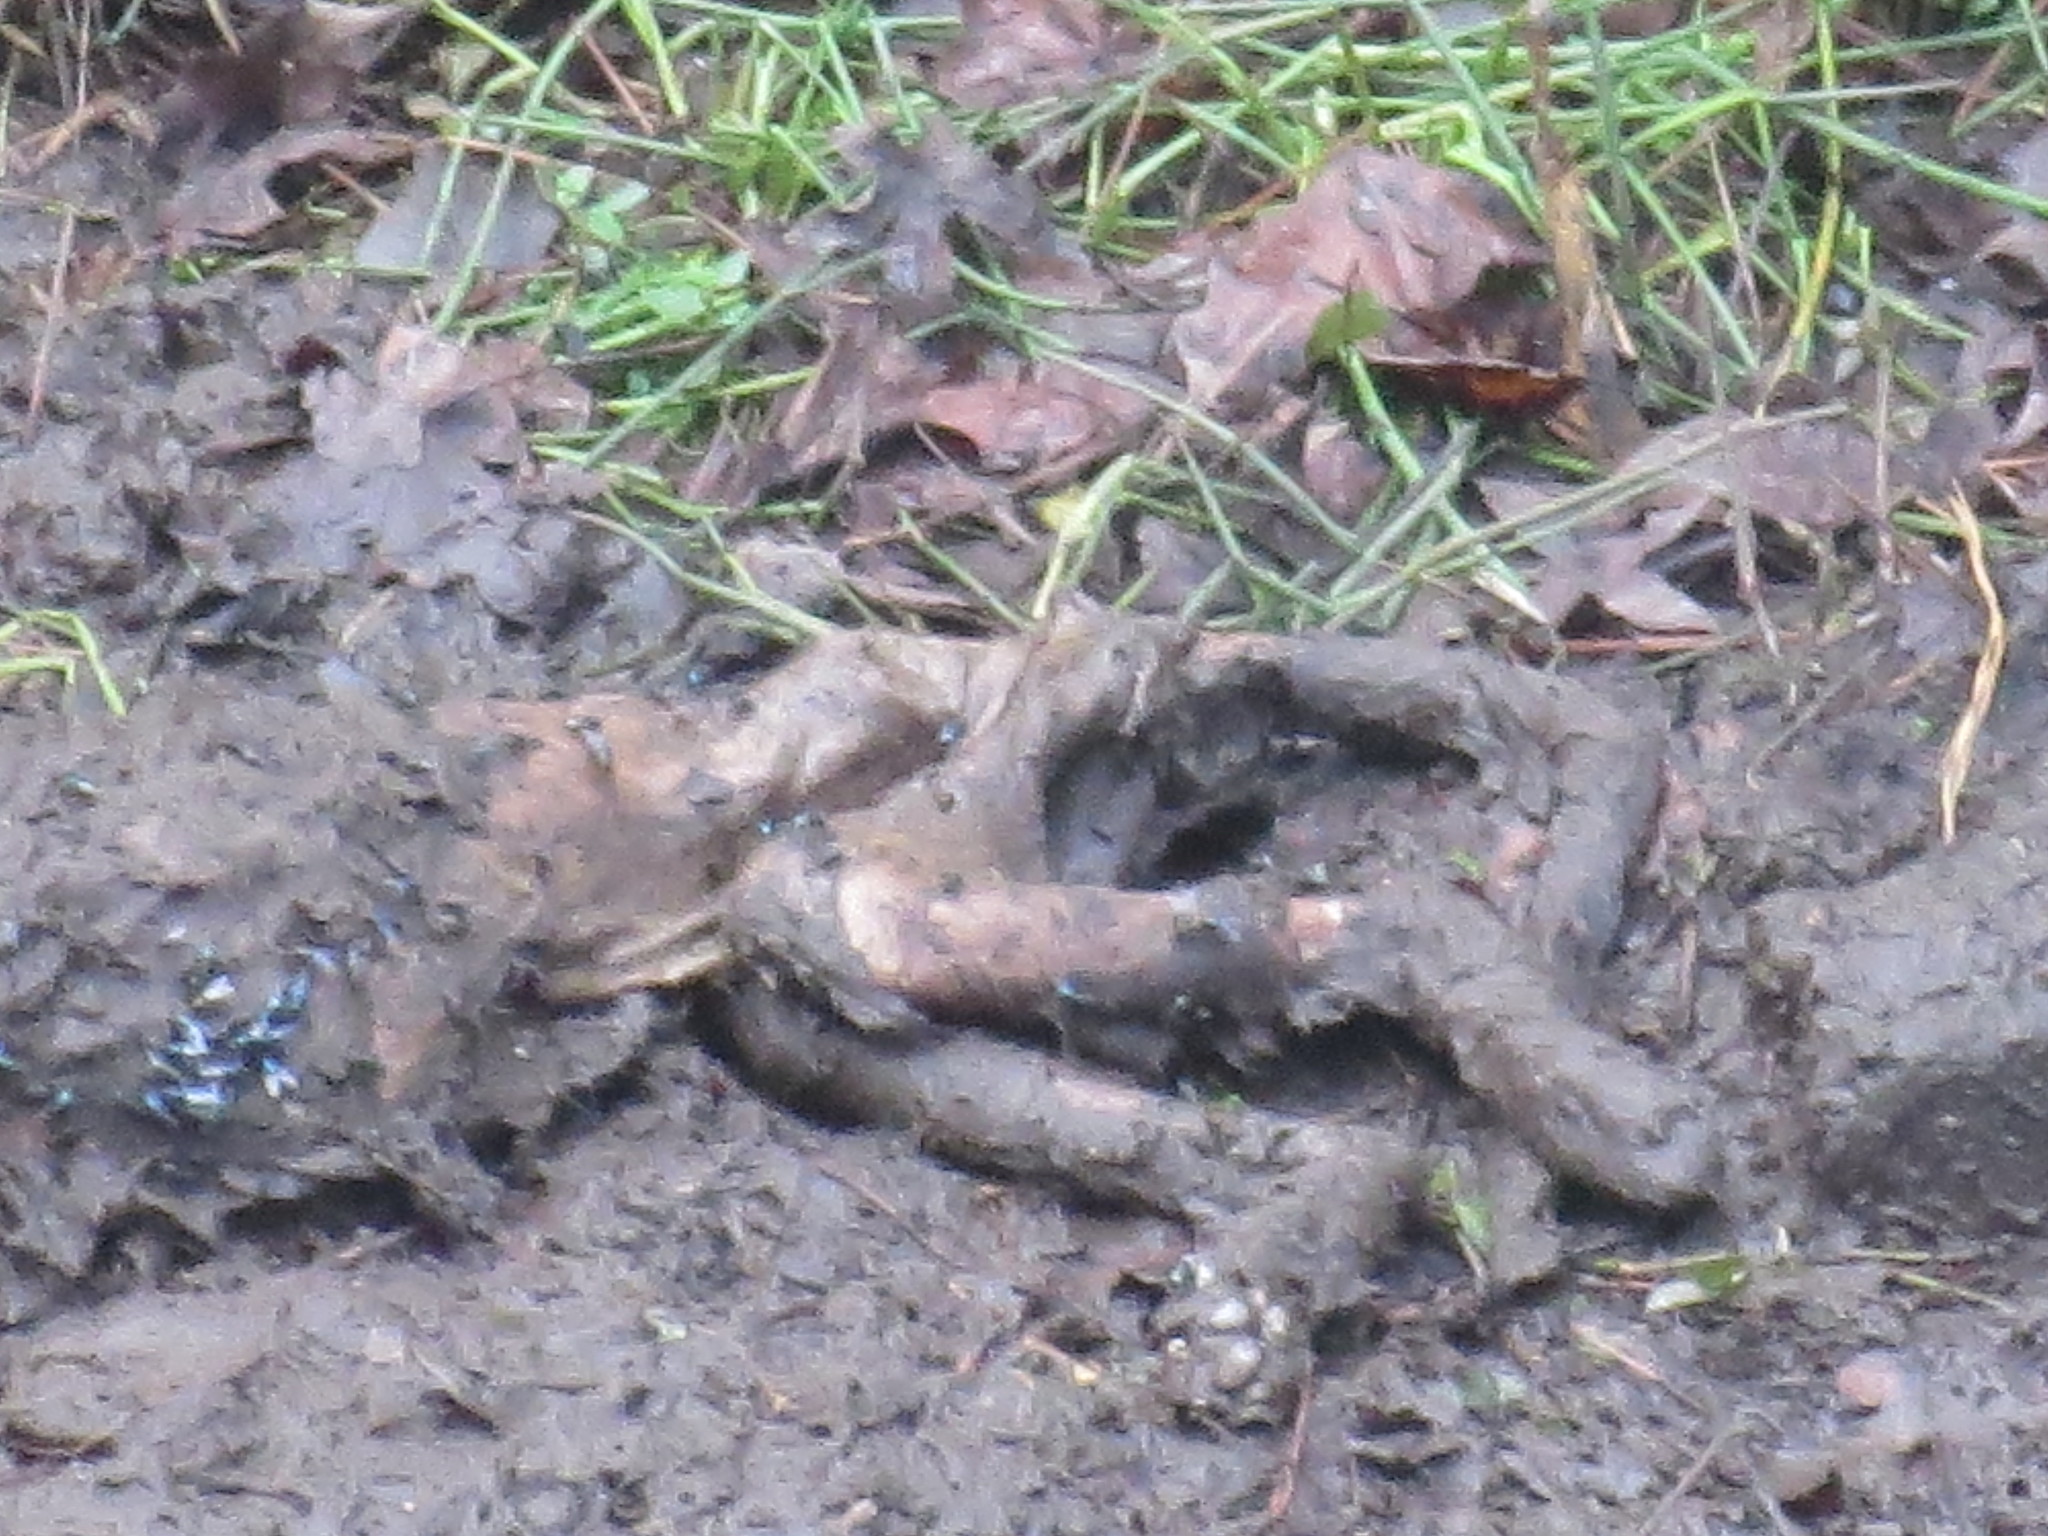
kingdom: Animalia
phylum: Chordata
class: Mammalia
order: Carnivora
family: Felidae
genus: Felis
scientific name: Felis catus
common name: Domestic cat
